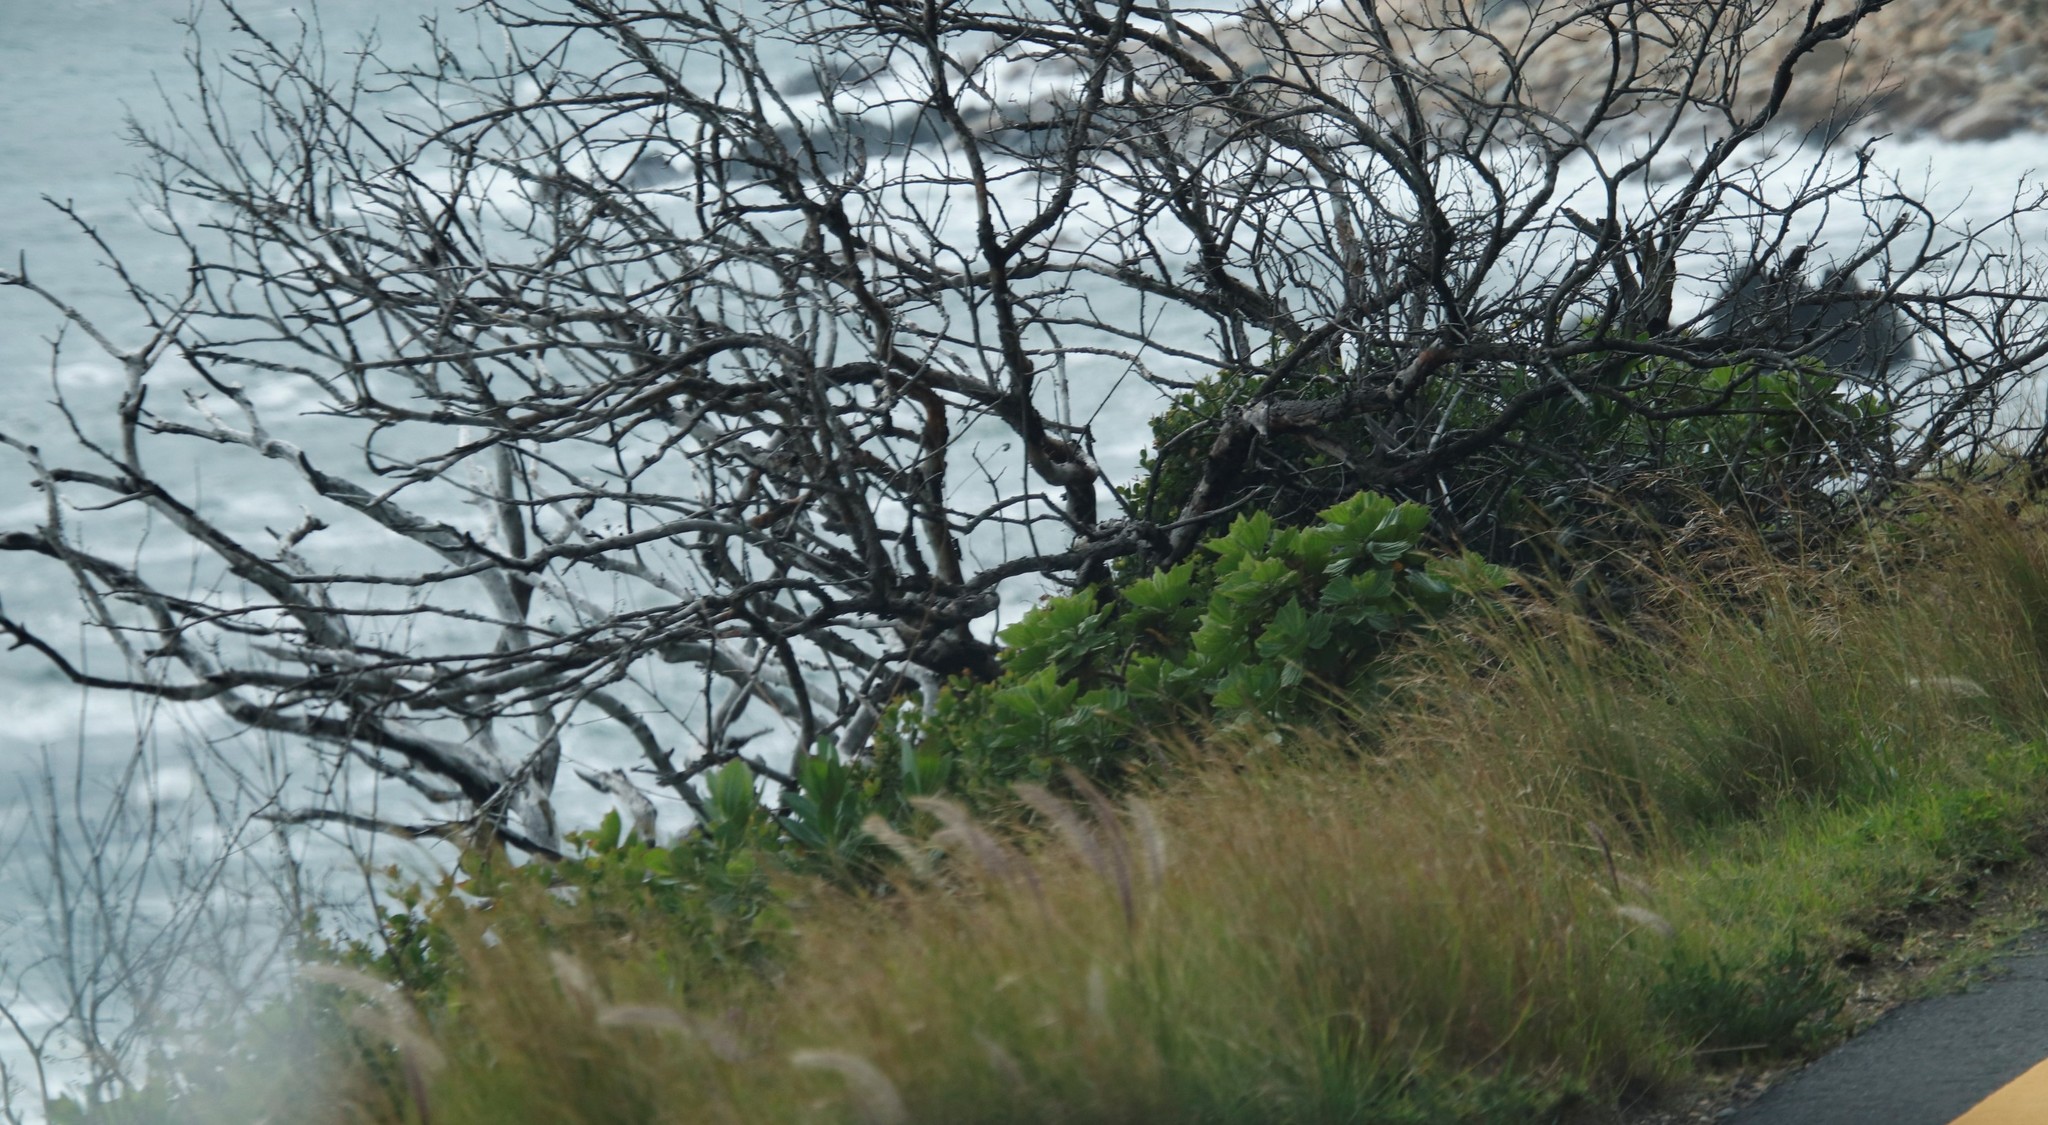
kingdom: Plantae
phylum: Tracheophyta
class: Liliopsida
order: Poales
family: Poaceae
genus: Cenchrus
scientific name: Cenchrus setaceus
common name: Crimson fountaingrass
